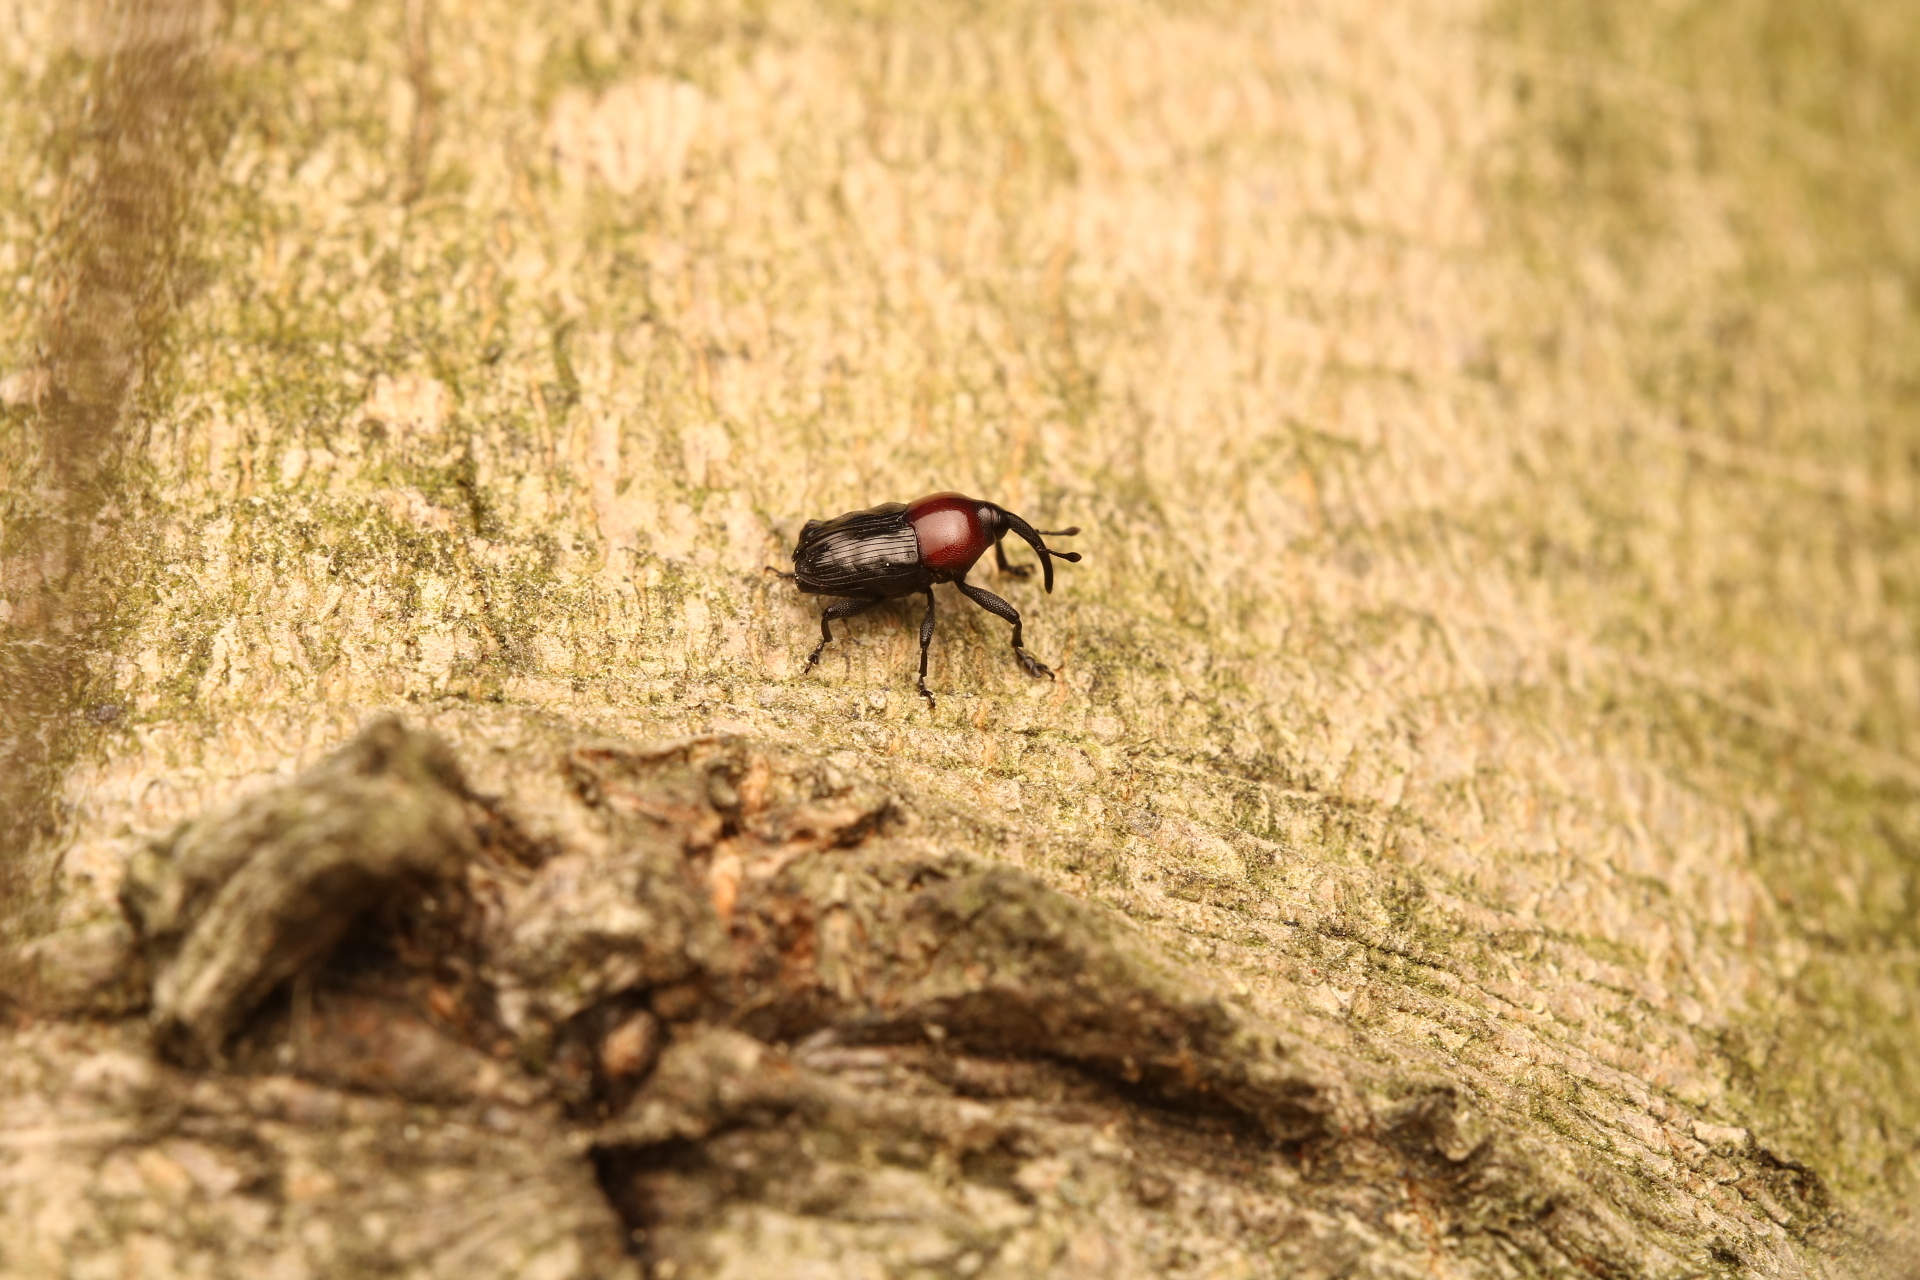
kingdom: Animalia
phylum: Arthropoda
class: Insecta
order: Coleoptera
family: Curculionidae
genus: Madarellus
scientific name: Madarellus undulatus
